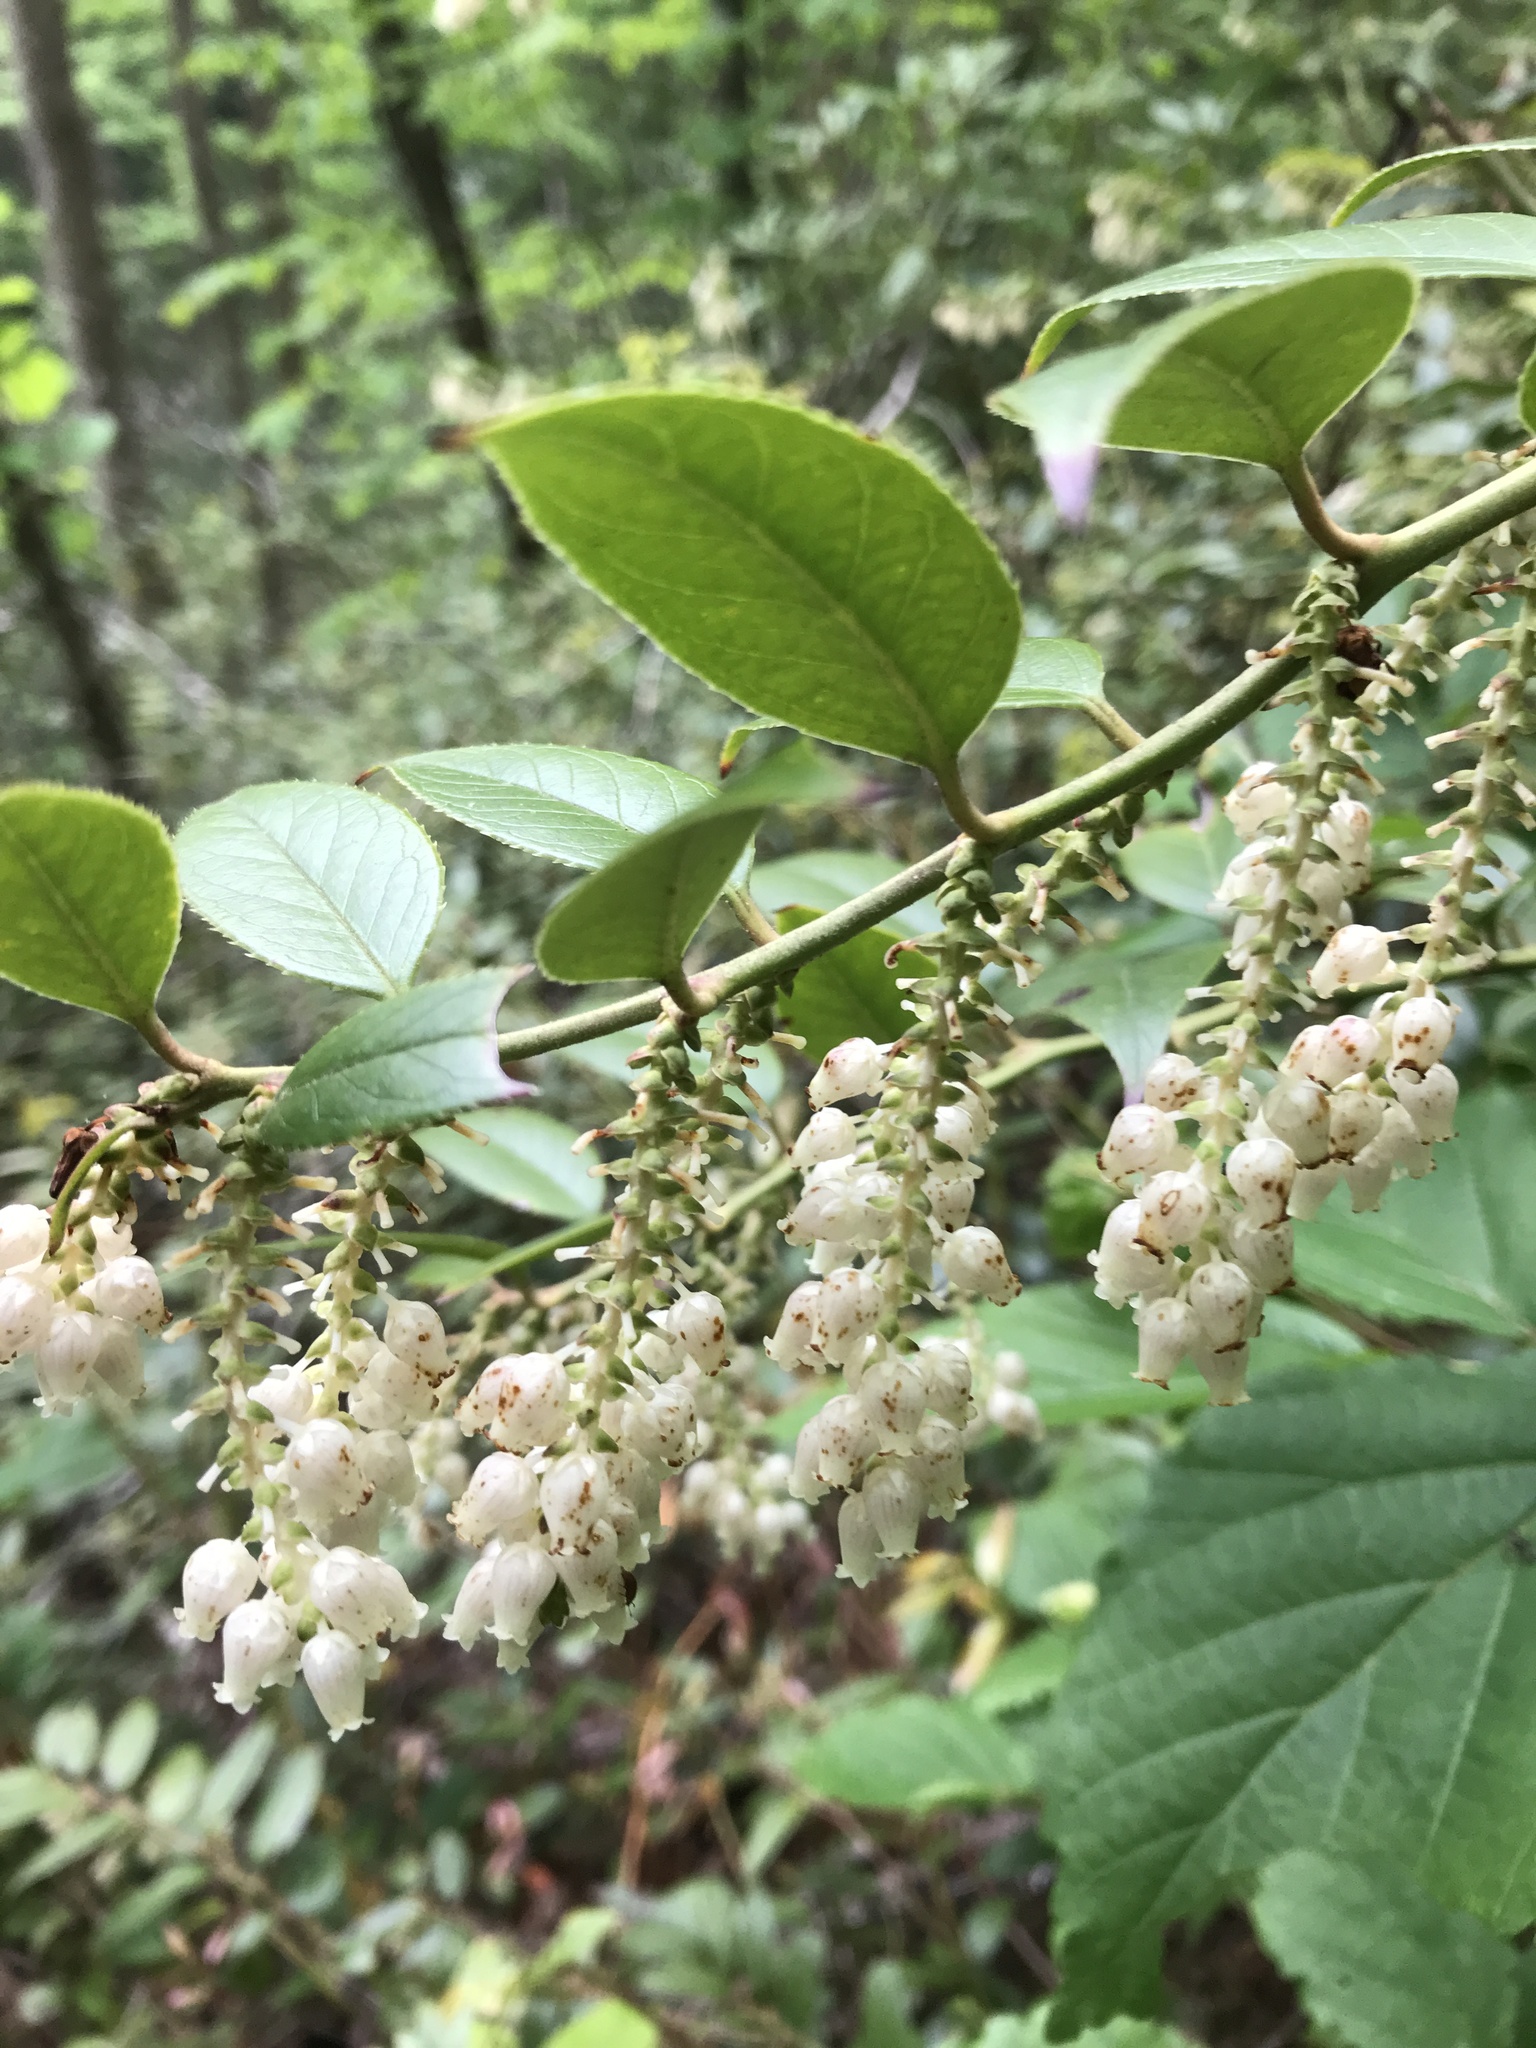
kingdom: Plantae
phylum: Tracheophyta
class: Magnoliopsida
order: Ericales
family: Ericaceae
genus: Leucothoe
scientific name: Leucothoe fontanesiana
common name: Fetterbush
